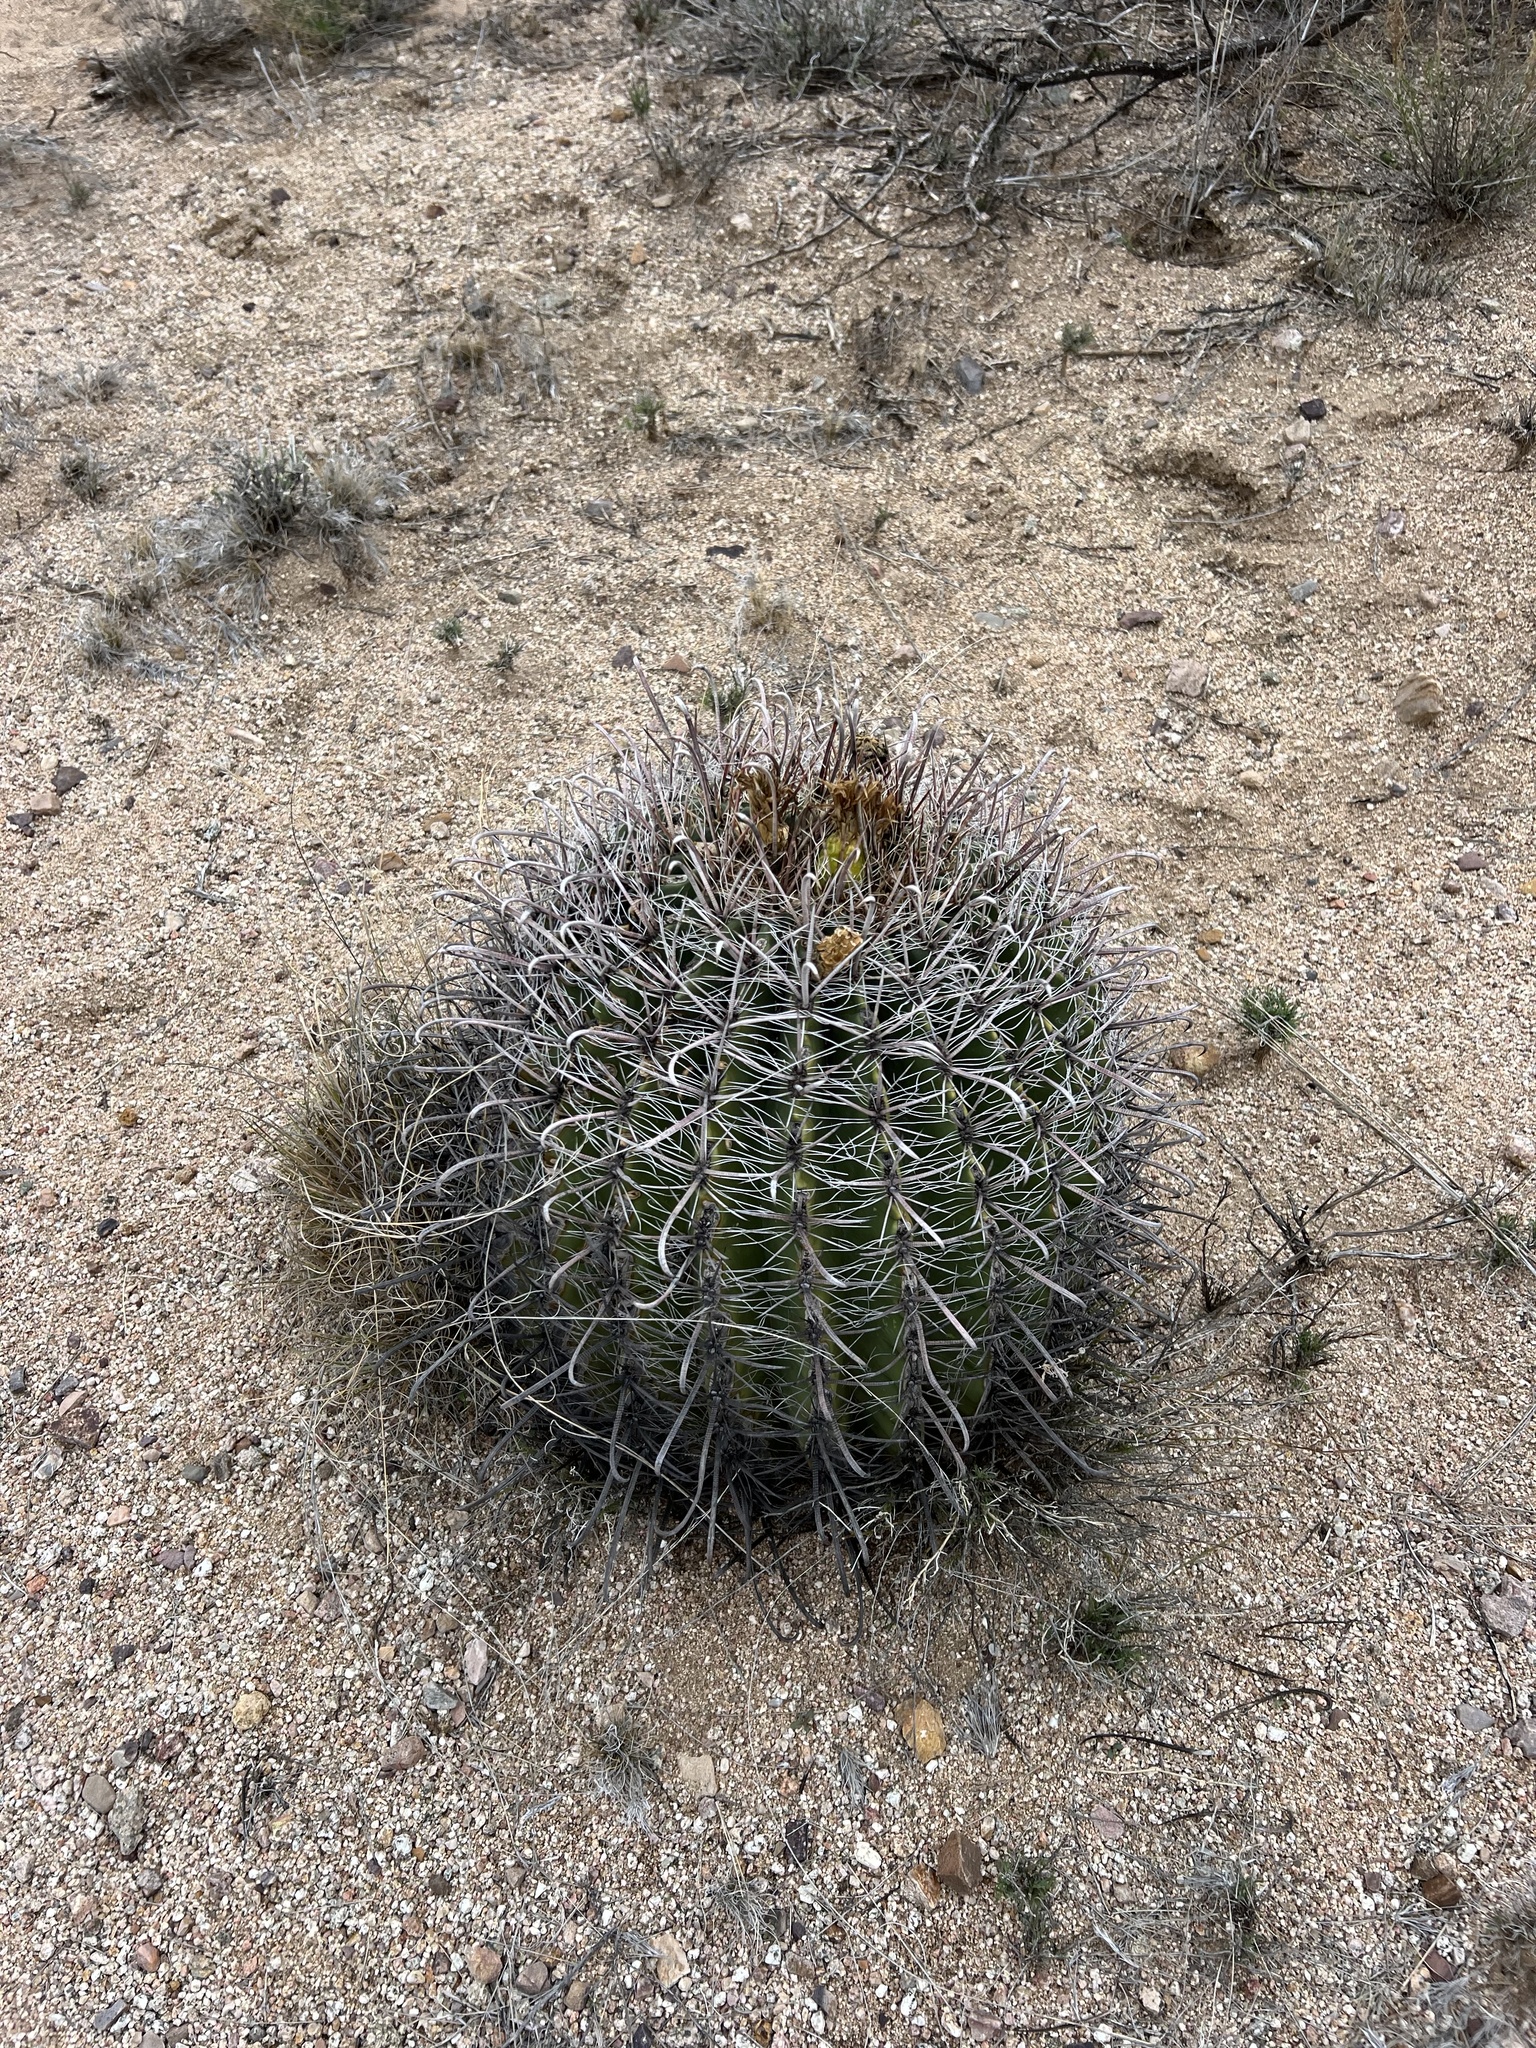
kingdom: Plantae
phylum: Tracheophyta
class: Magnoliopsida
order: Caryophyllales
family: Cactaceae
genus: Ferocactus
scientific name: Ferocactus wislizeni
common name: Candy barrel cactus
